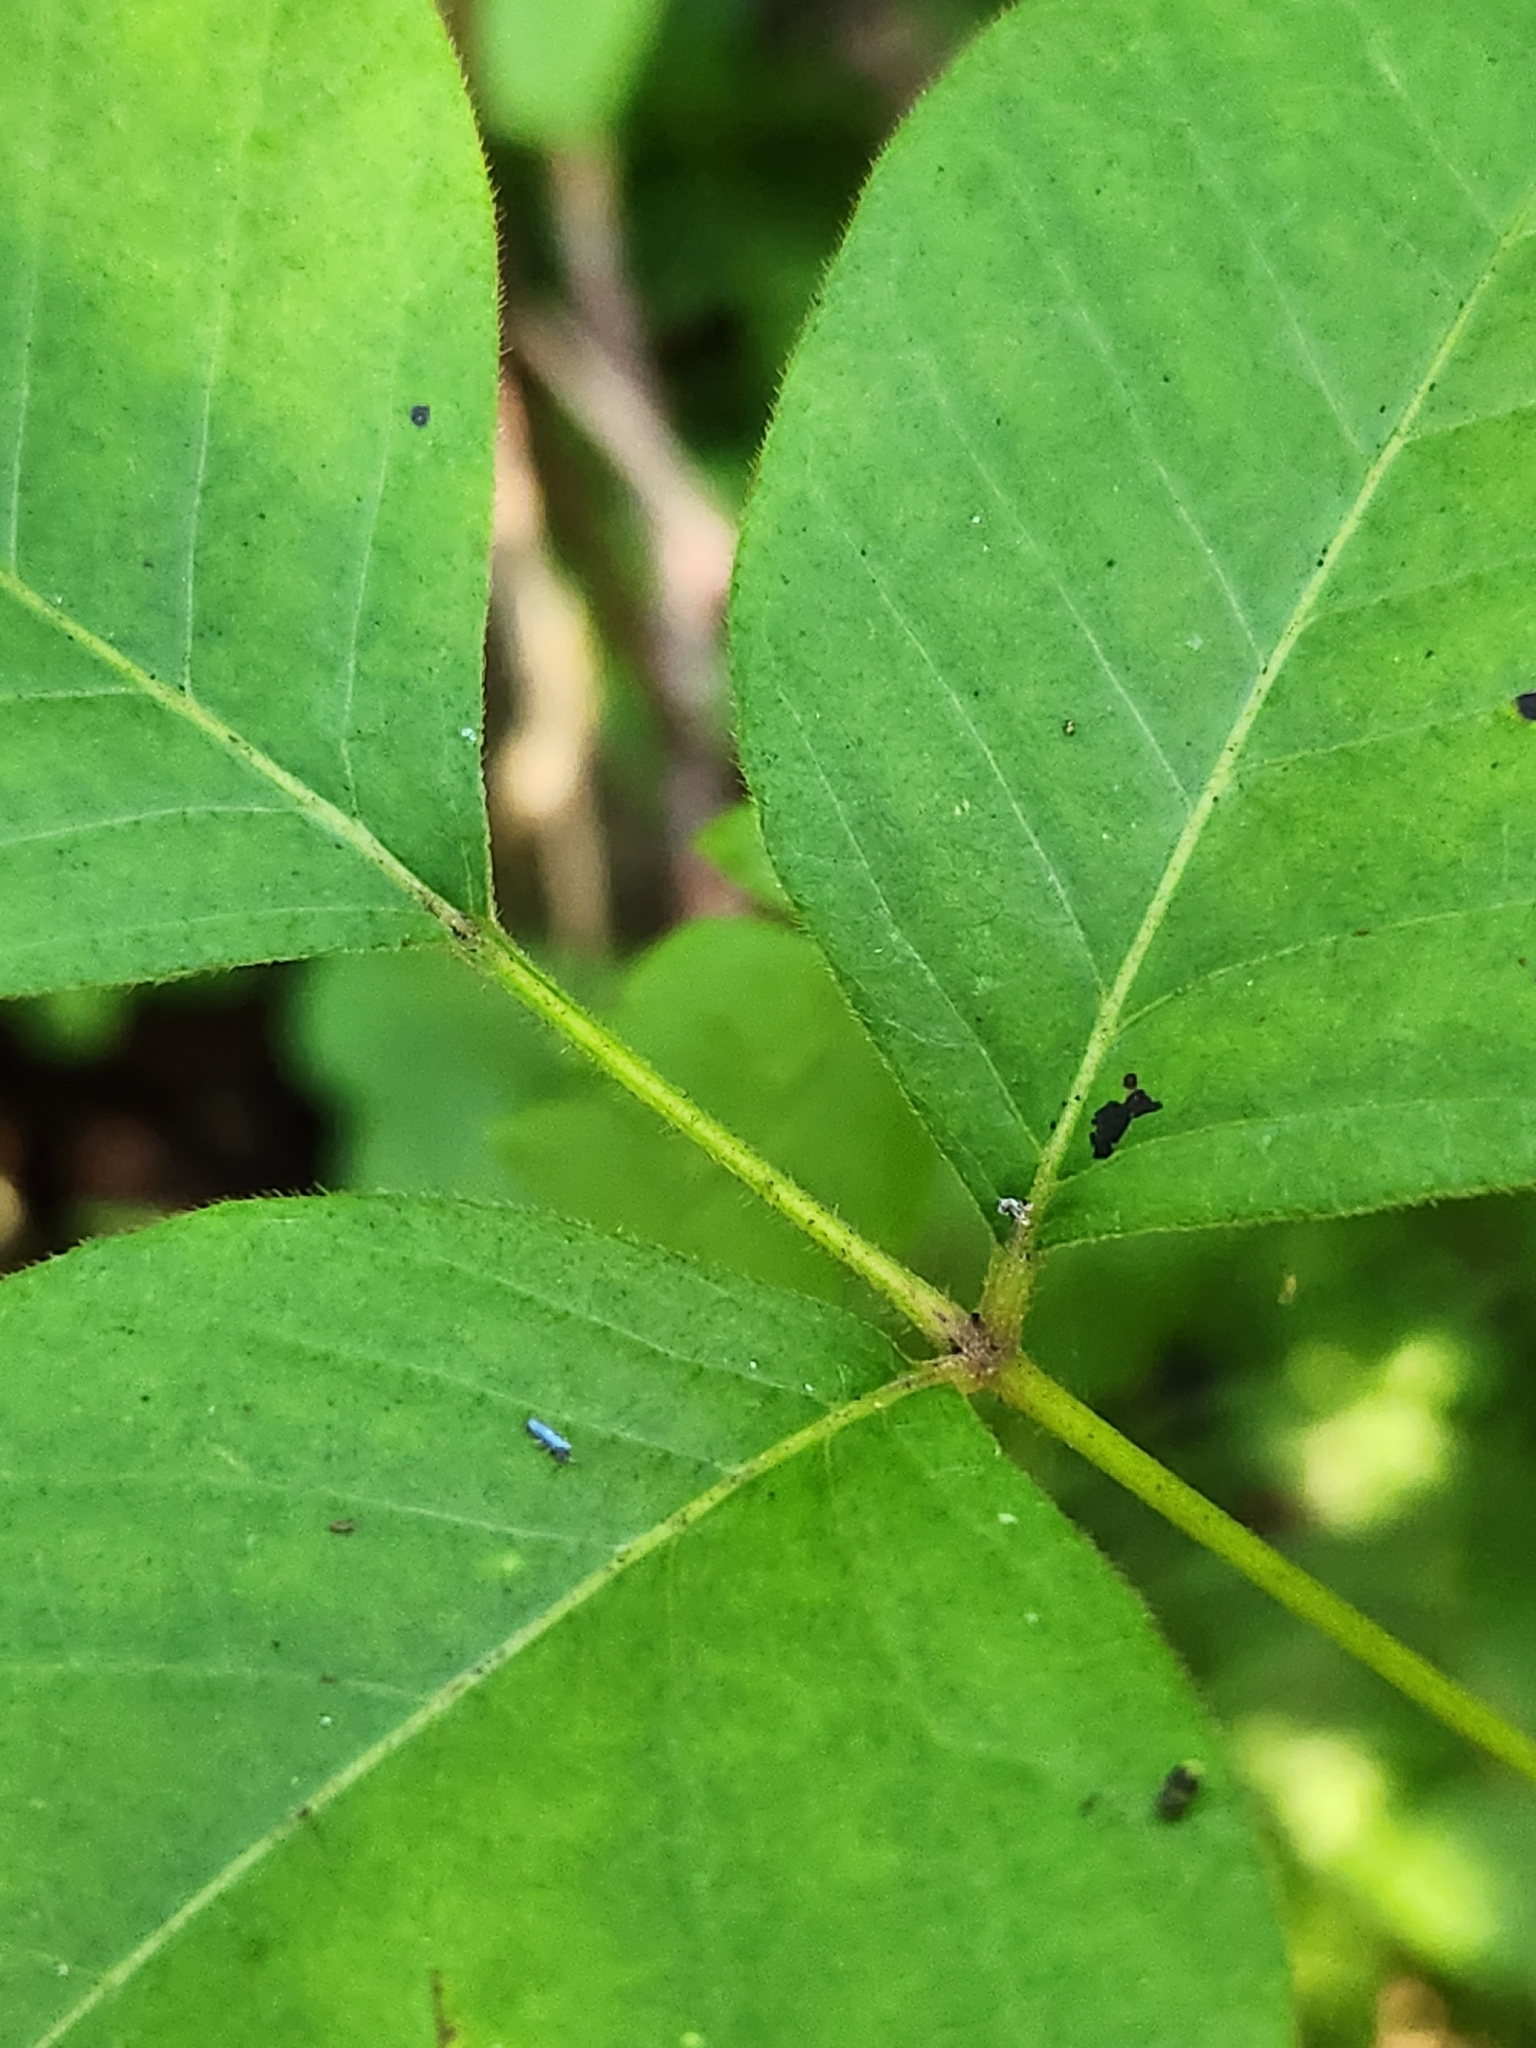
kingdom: Plantae
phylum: Tracheophyta
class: Magnoliopsida
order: Sapindales
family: Anacardiaceae
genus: Toxicodendron
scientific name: Toxicodendron radicans
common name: Poison ivy
